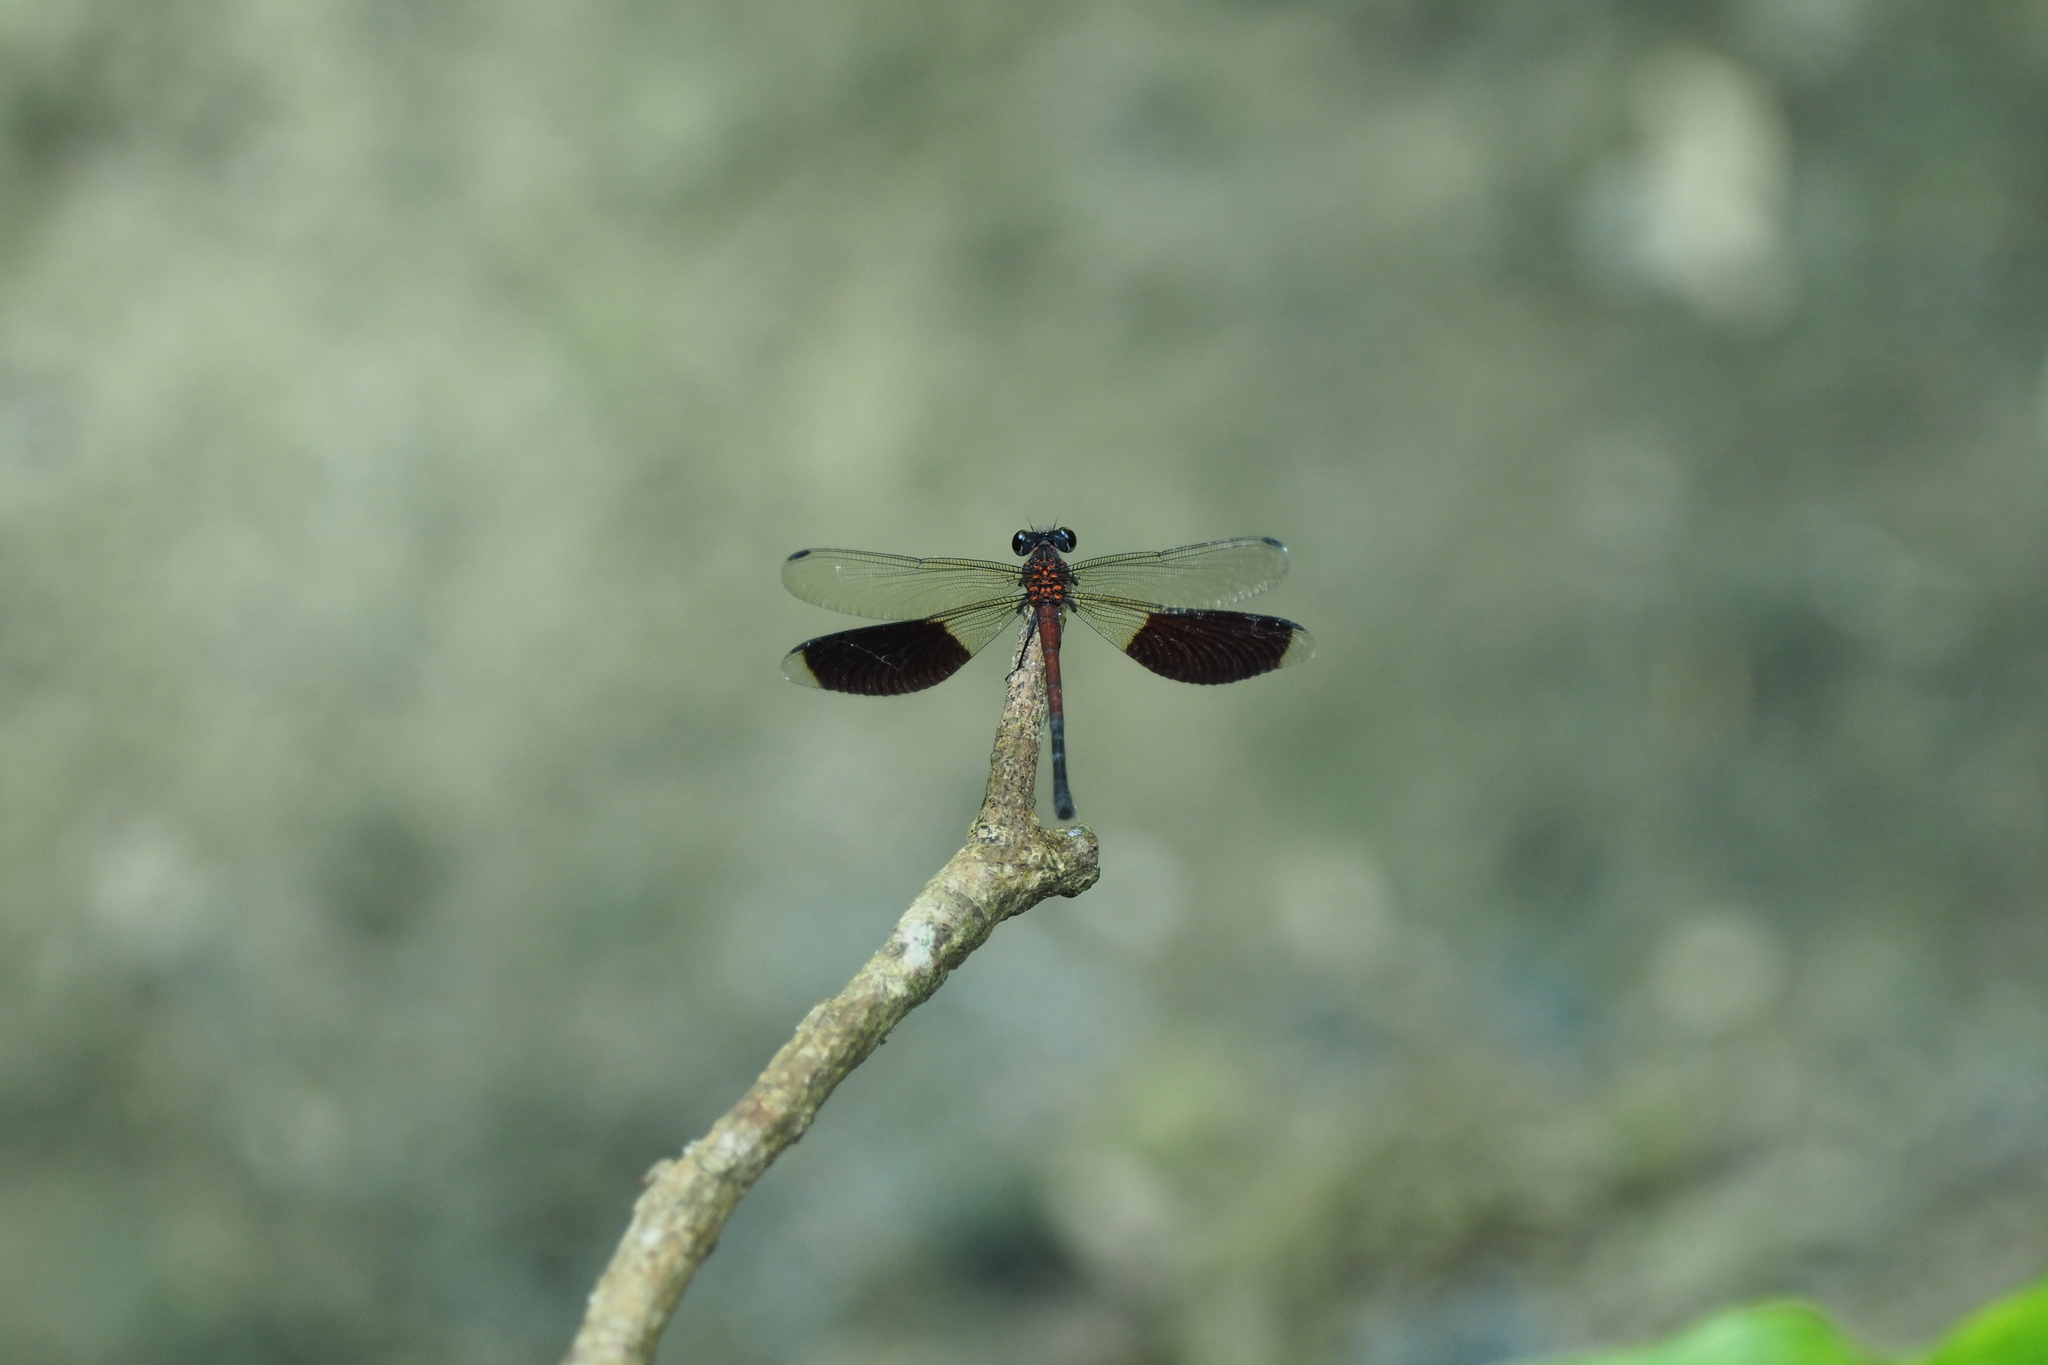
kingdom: Animalia
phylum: Arthropoda
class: Insecta
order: Odonata
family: Euphaeidae
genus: Euphaea
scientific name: Euphaea formosa
